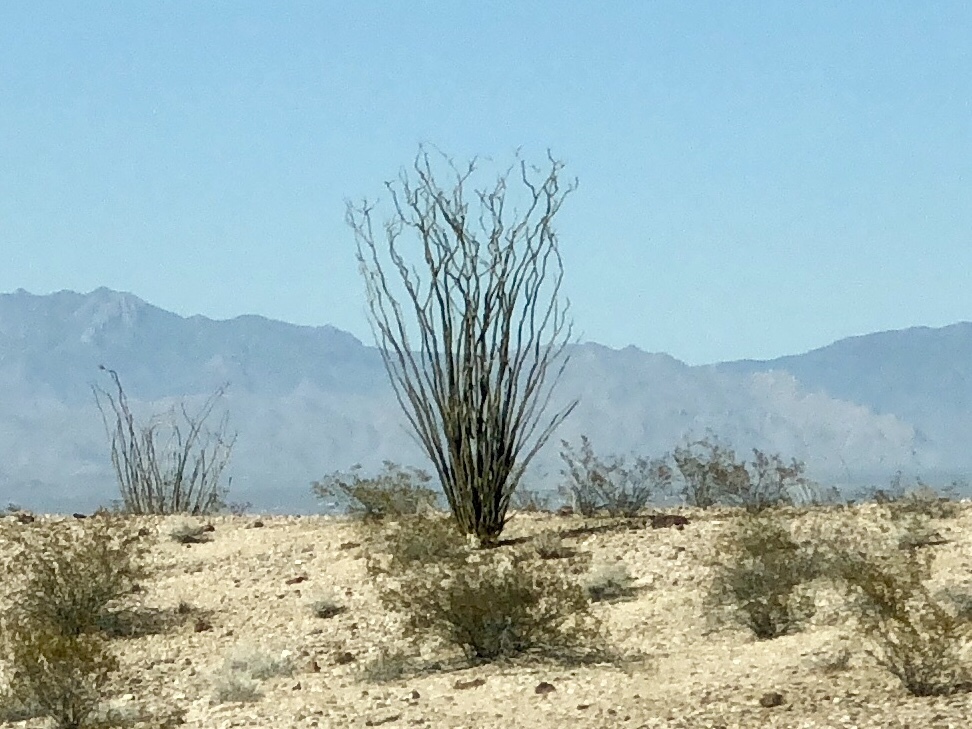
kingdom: Plantae
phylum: Tracheophyta
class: Magnoliopsida
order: Ericales
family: Fouquieriaceae
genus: Fouquieria
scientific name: Fouquieria splendens
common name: Vine-cactus
